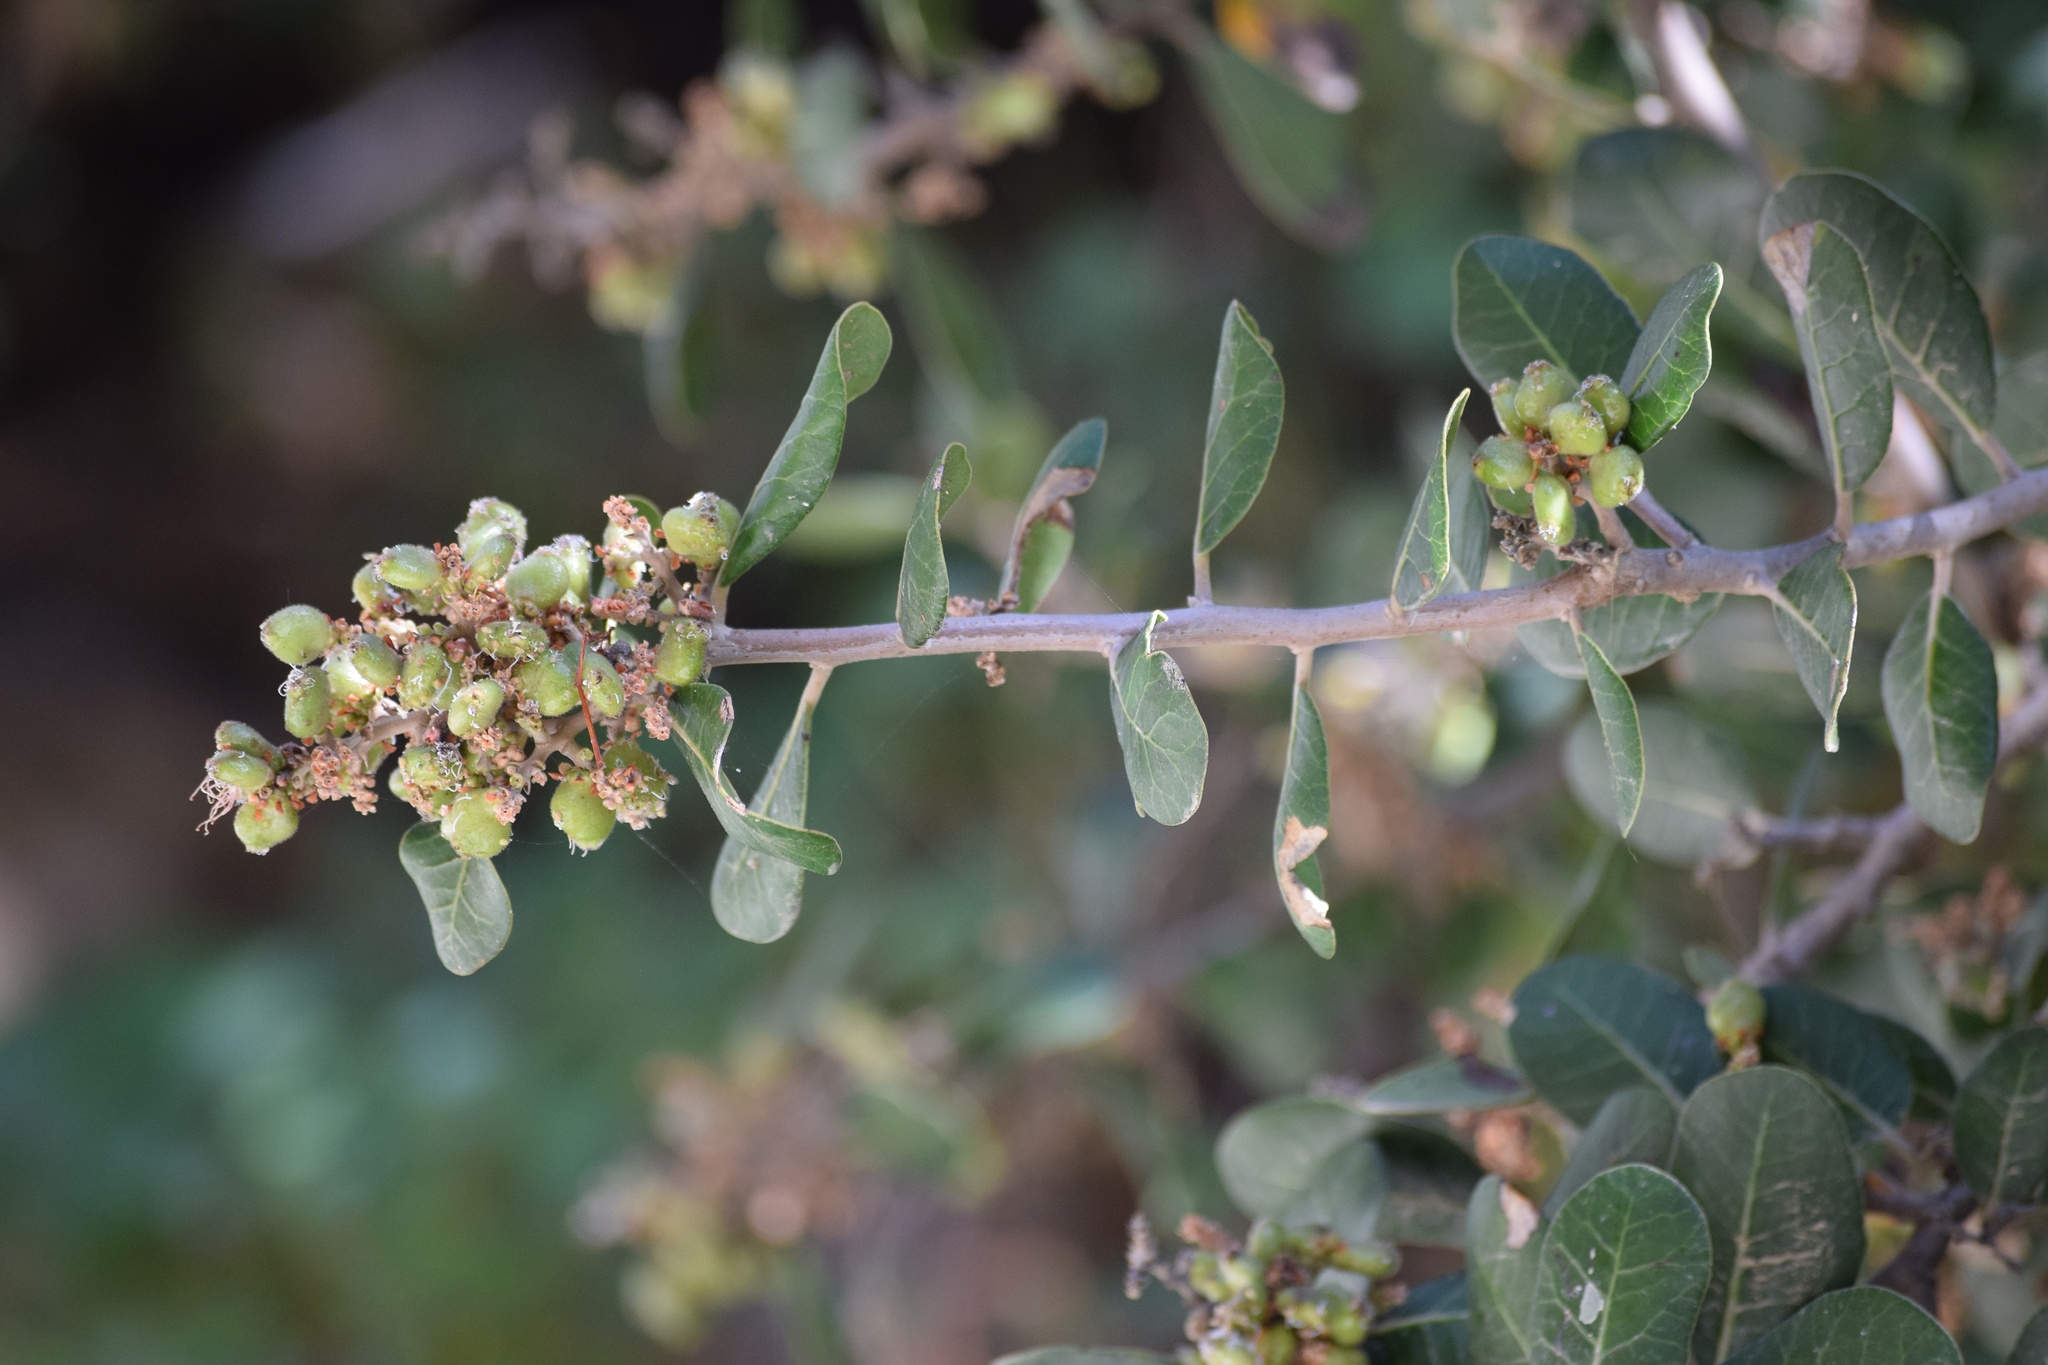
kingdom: Plantae
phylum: Tracheophyta
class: Magnoliopsida
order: Sapindales
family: Anacardiaceae
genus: Rhus
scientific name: Rhus integrifolia
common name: Lemonade sumac
